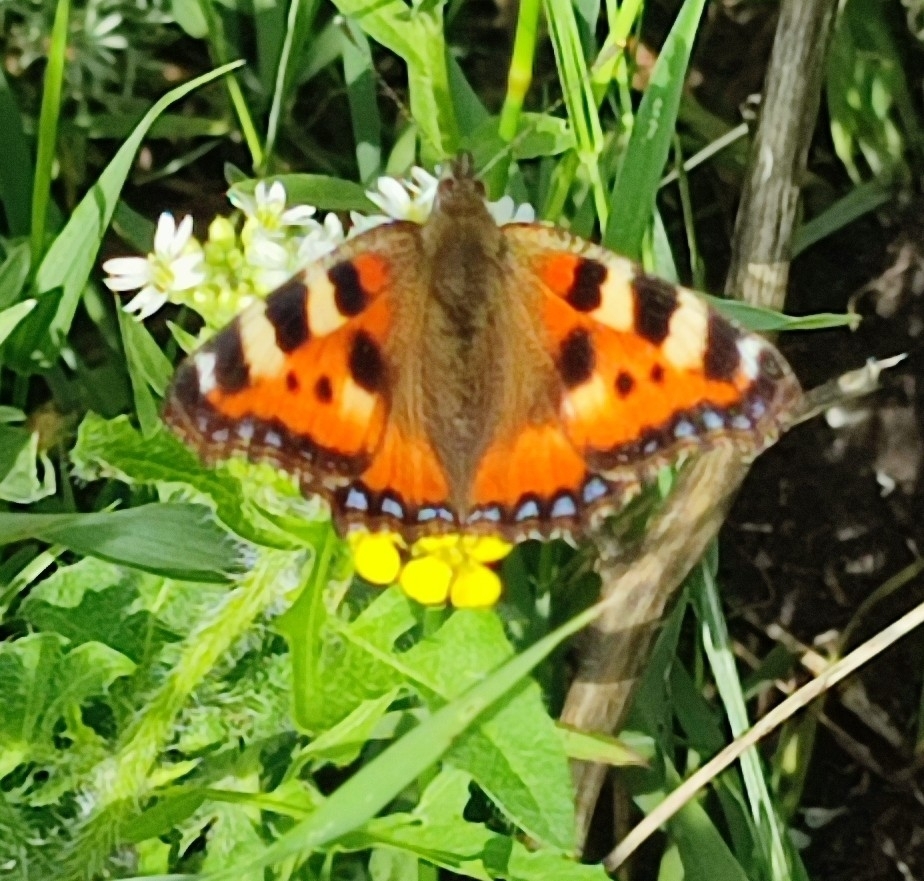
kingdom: Animalia
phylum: Arthropoda
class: Insecta
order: Lepidoptera
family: Nymphalidae
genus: Aglais
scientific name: Aglais urticae
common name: Small tortoiseshell
